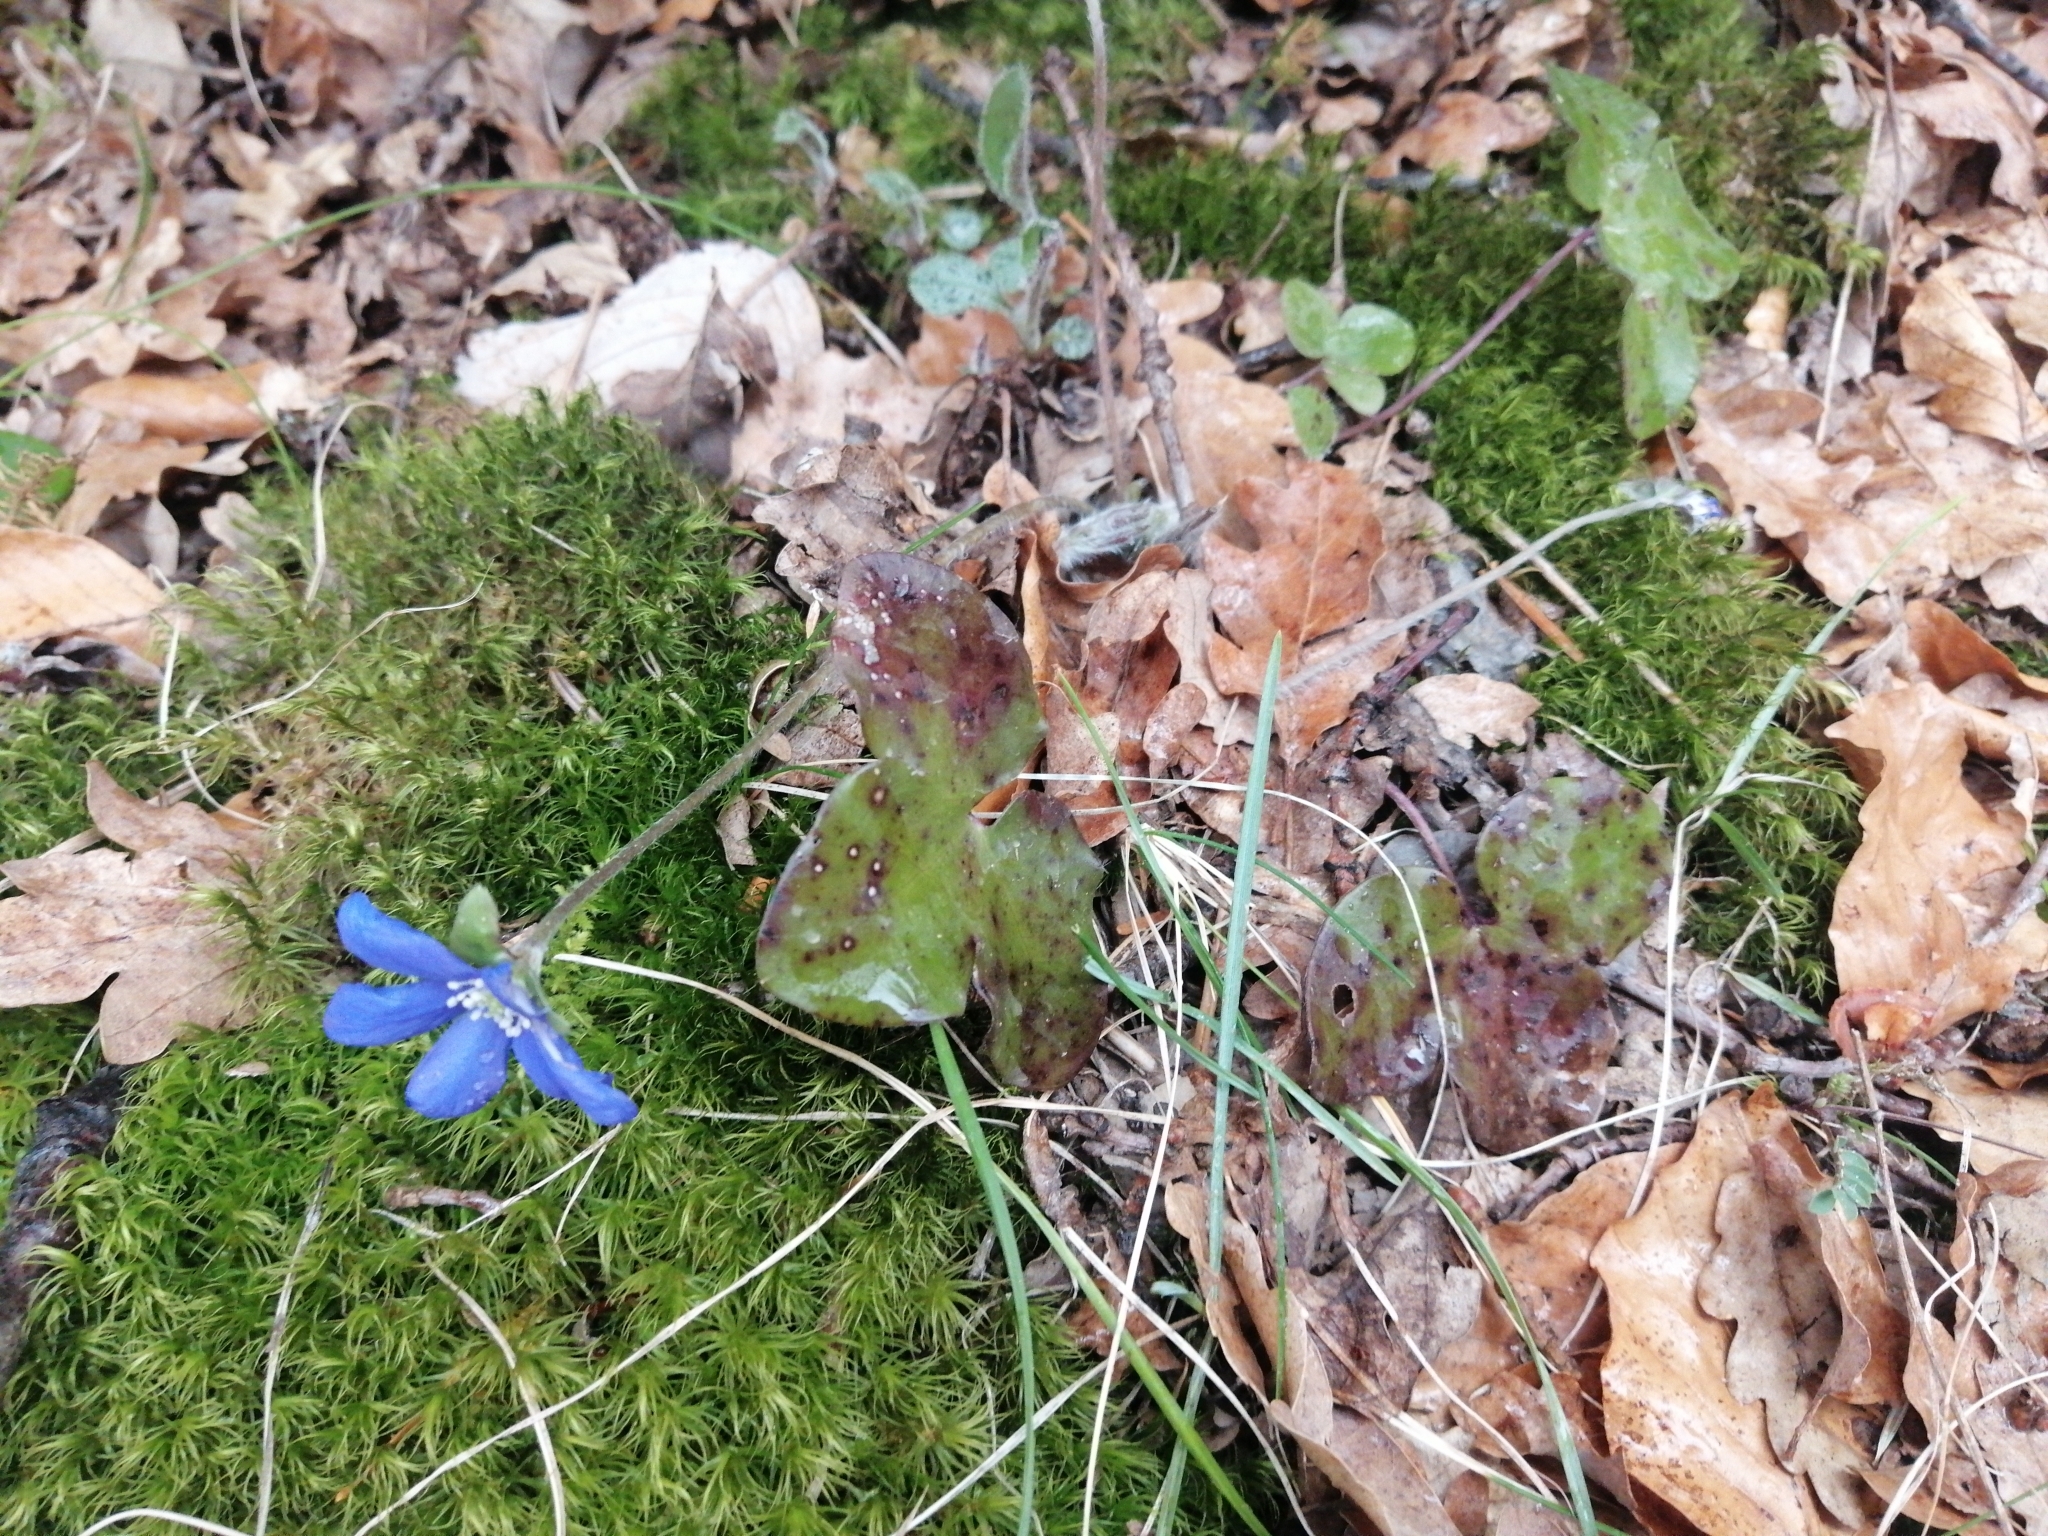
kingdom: Plantae
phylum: Tracheophyta
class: Magnoliopsida
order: Ranunculales
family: Ranunculaceae
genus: Hepatica
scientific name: Hepatica nobilis
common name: Liverleaf
